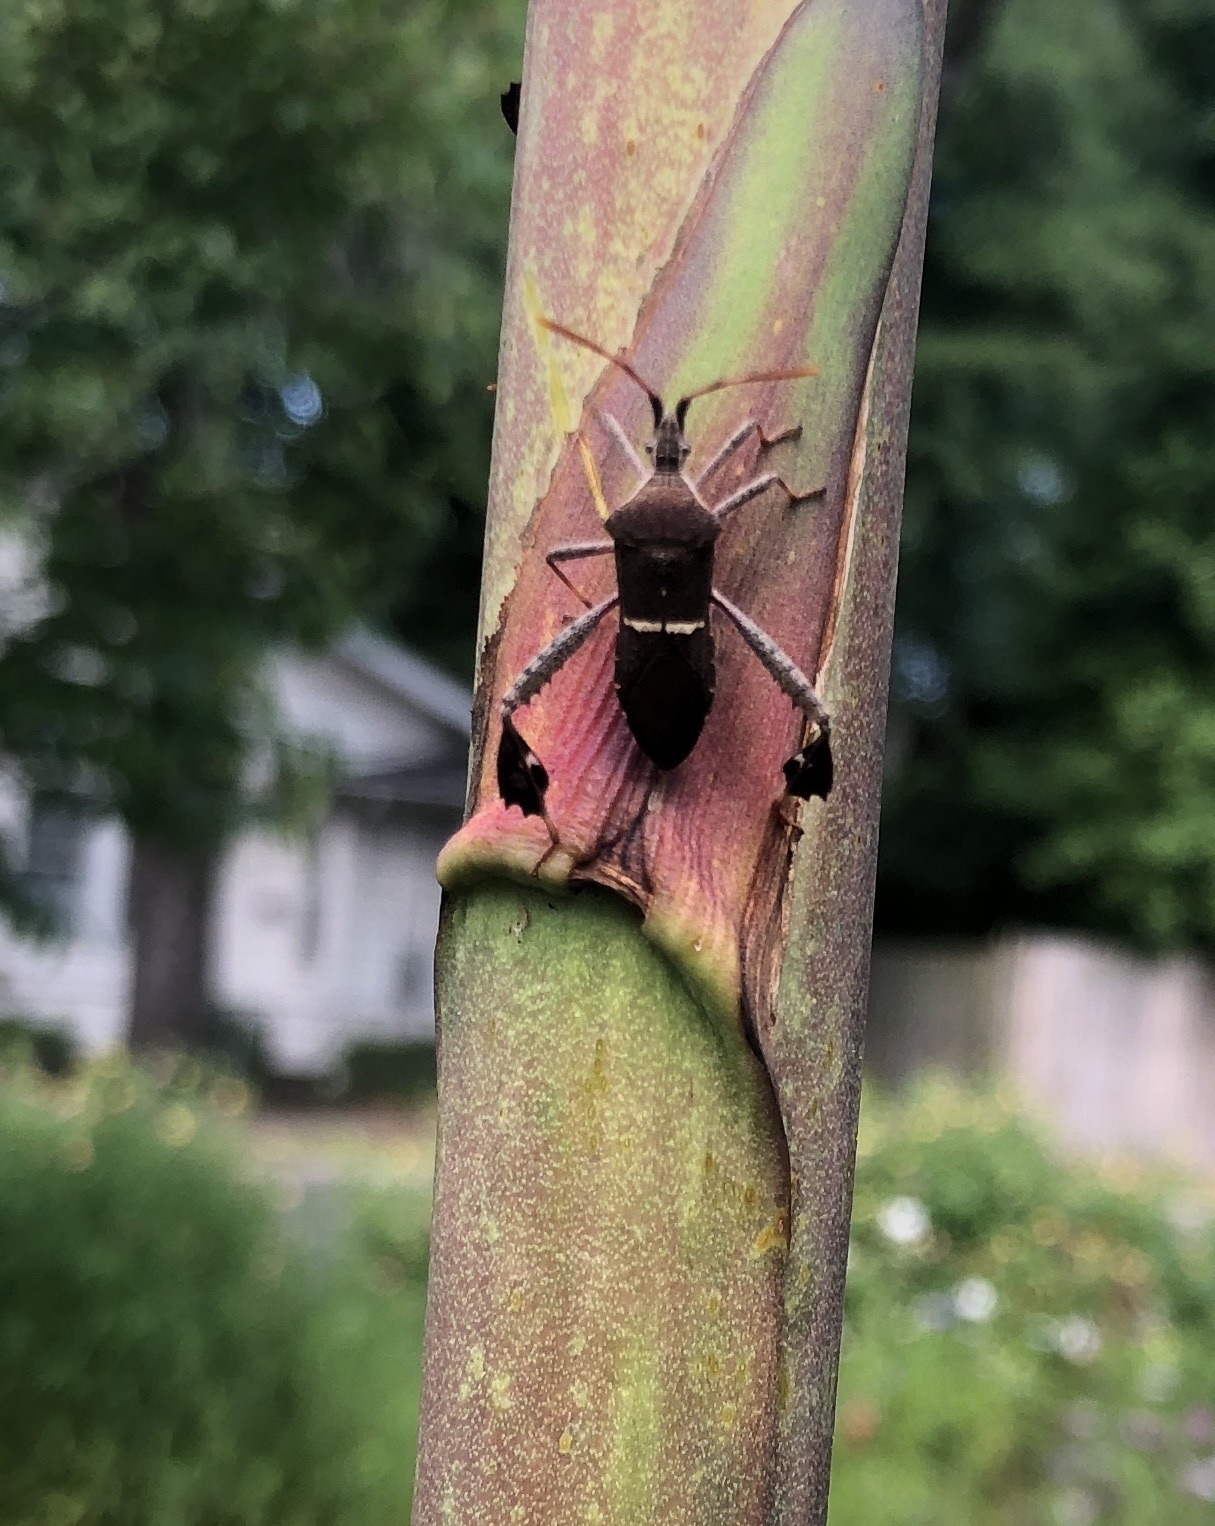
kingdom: Animalia
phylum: Arthropoda
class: Insecta
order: Hemiptera
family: Coreidae
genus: Leptoglossus
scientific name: Leptoglossus phyllopus
